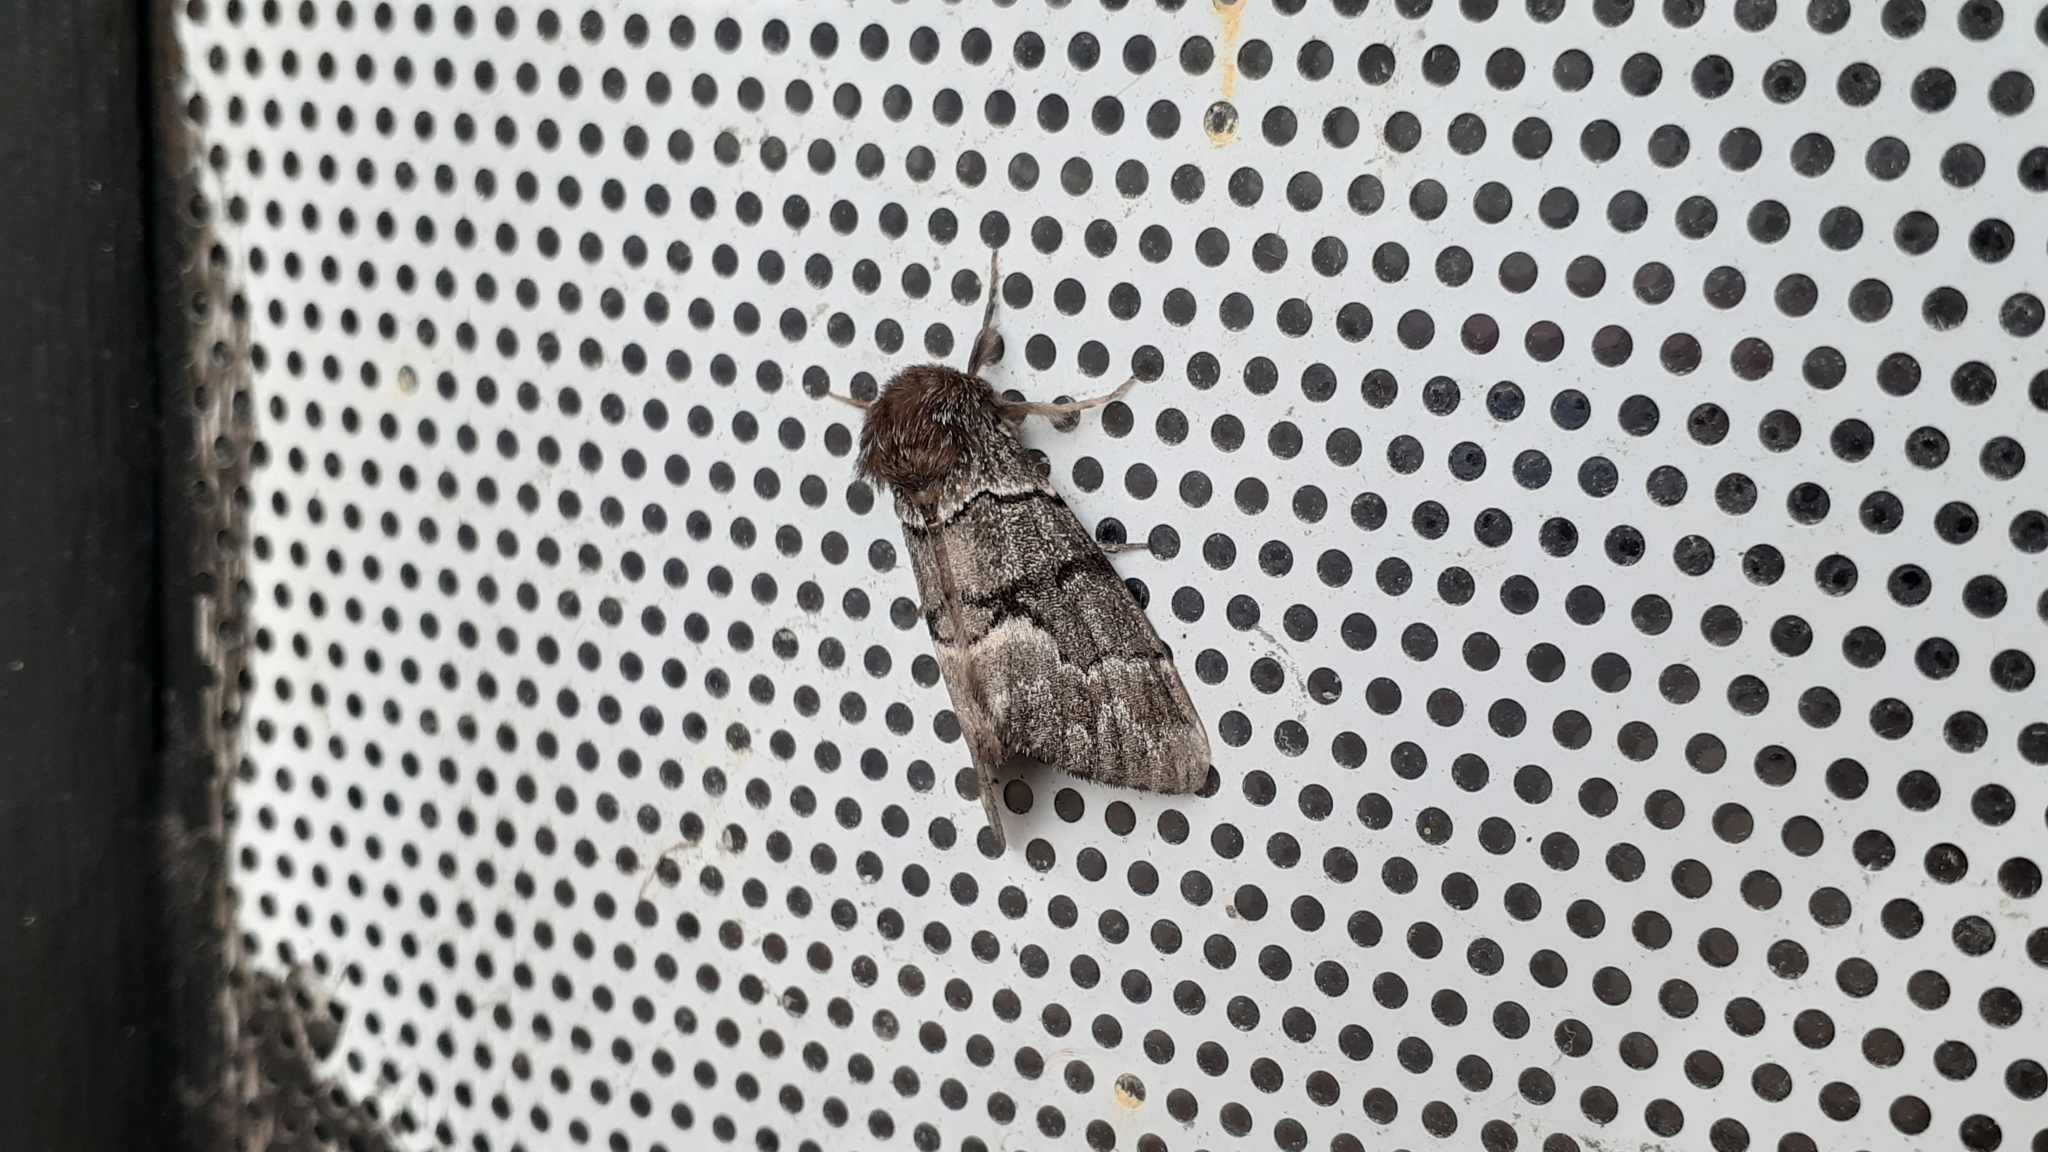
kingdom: Animalia
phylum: Arthropoda
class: Insecta
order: Lepidoptera
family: Noctuidae
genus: Panthea
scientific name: Panthea furcilla
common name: Eastern panthea moth
